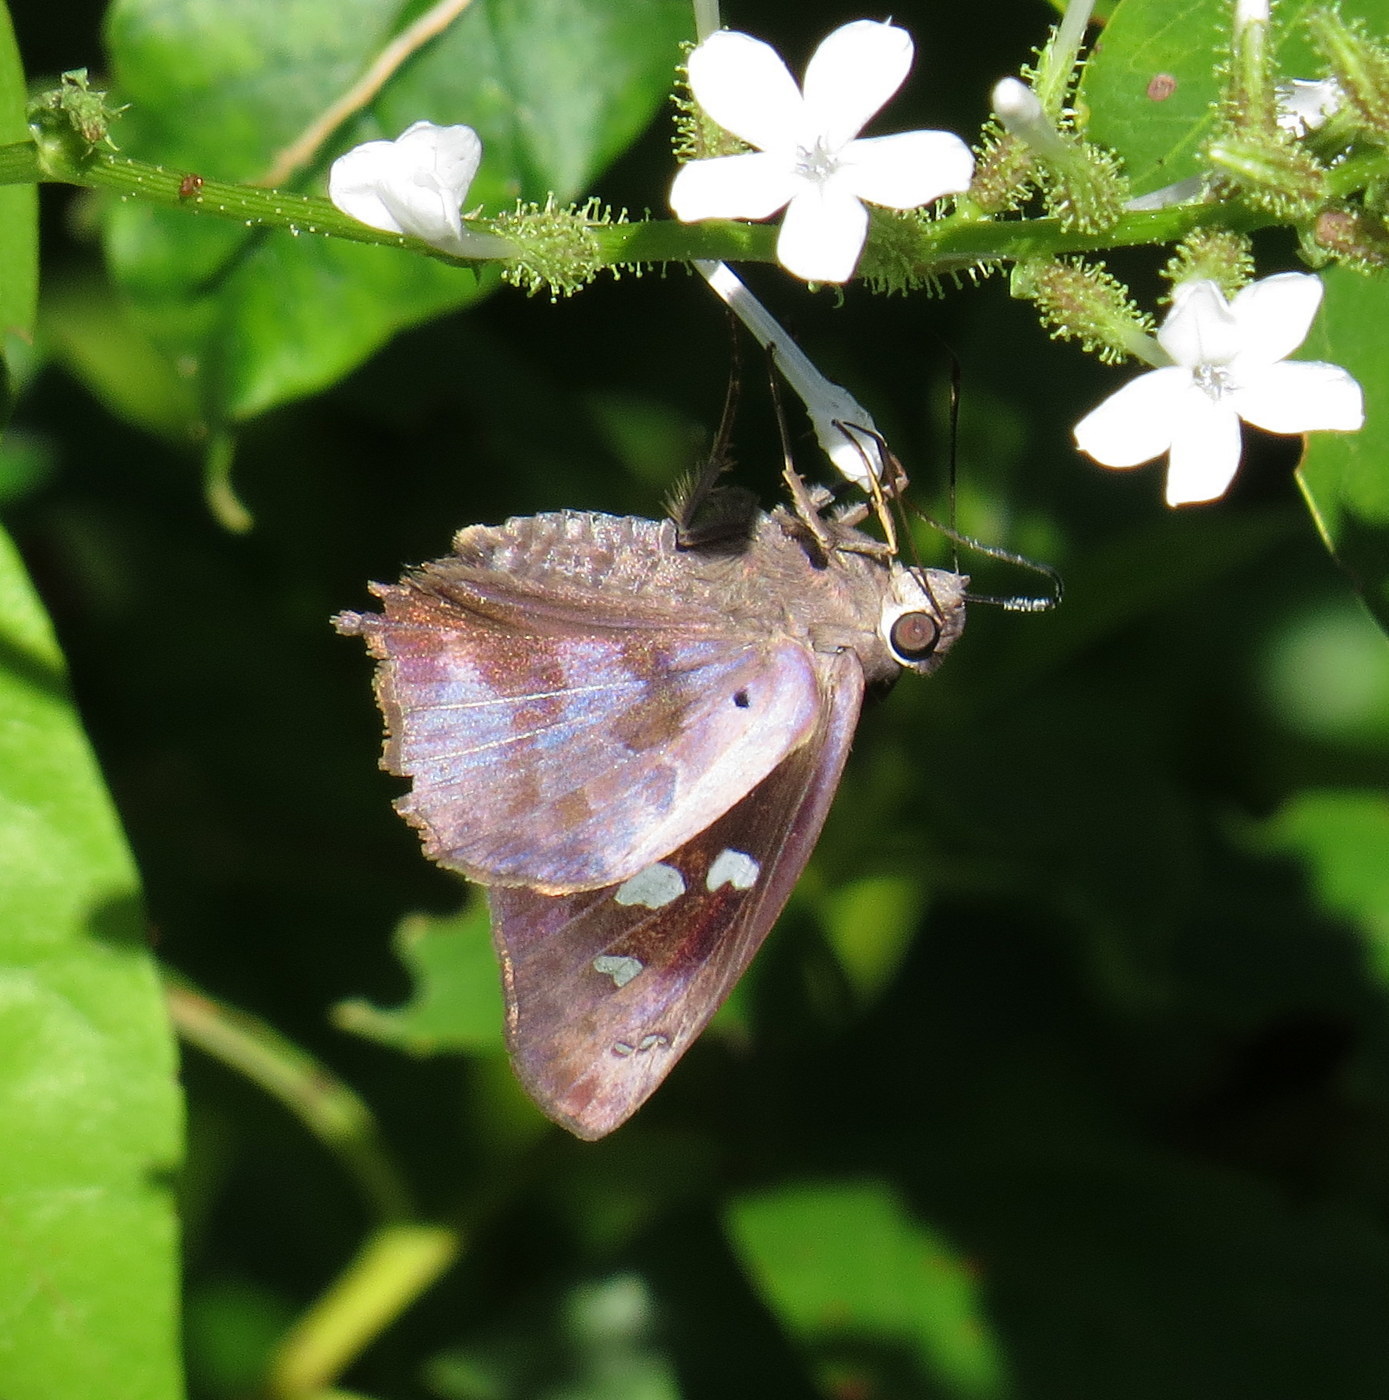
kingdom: Animalia
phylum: Arthropoda
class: Insecta
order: Lepidoptera
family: Hesperiidae
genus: Polygonus
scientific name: Polygonus leo
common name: Hammoch skipper
